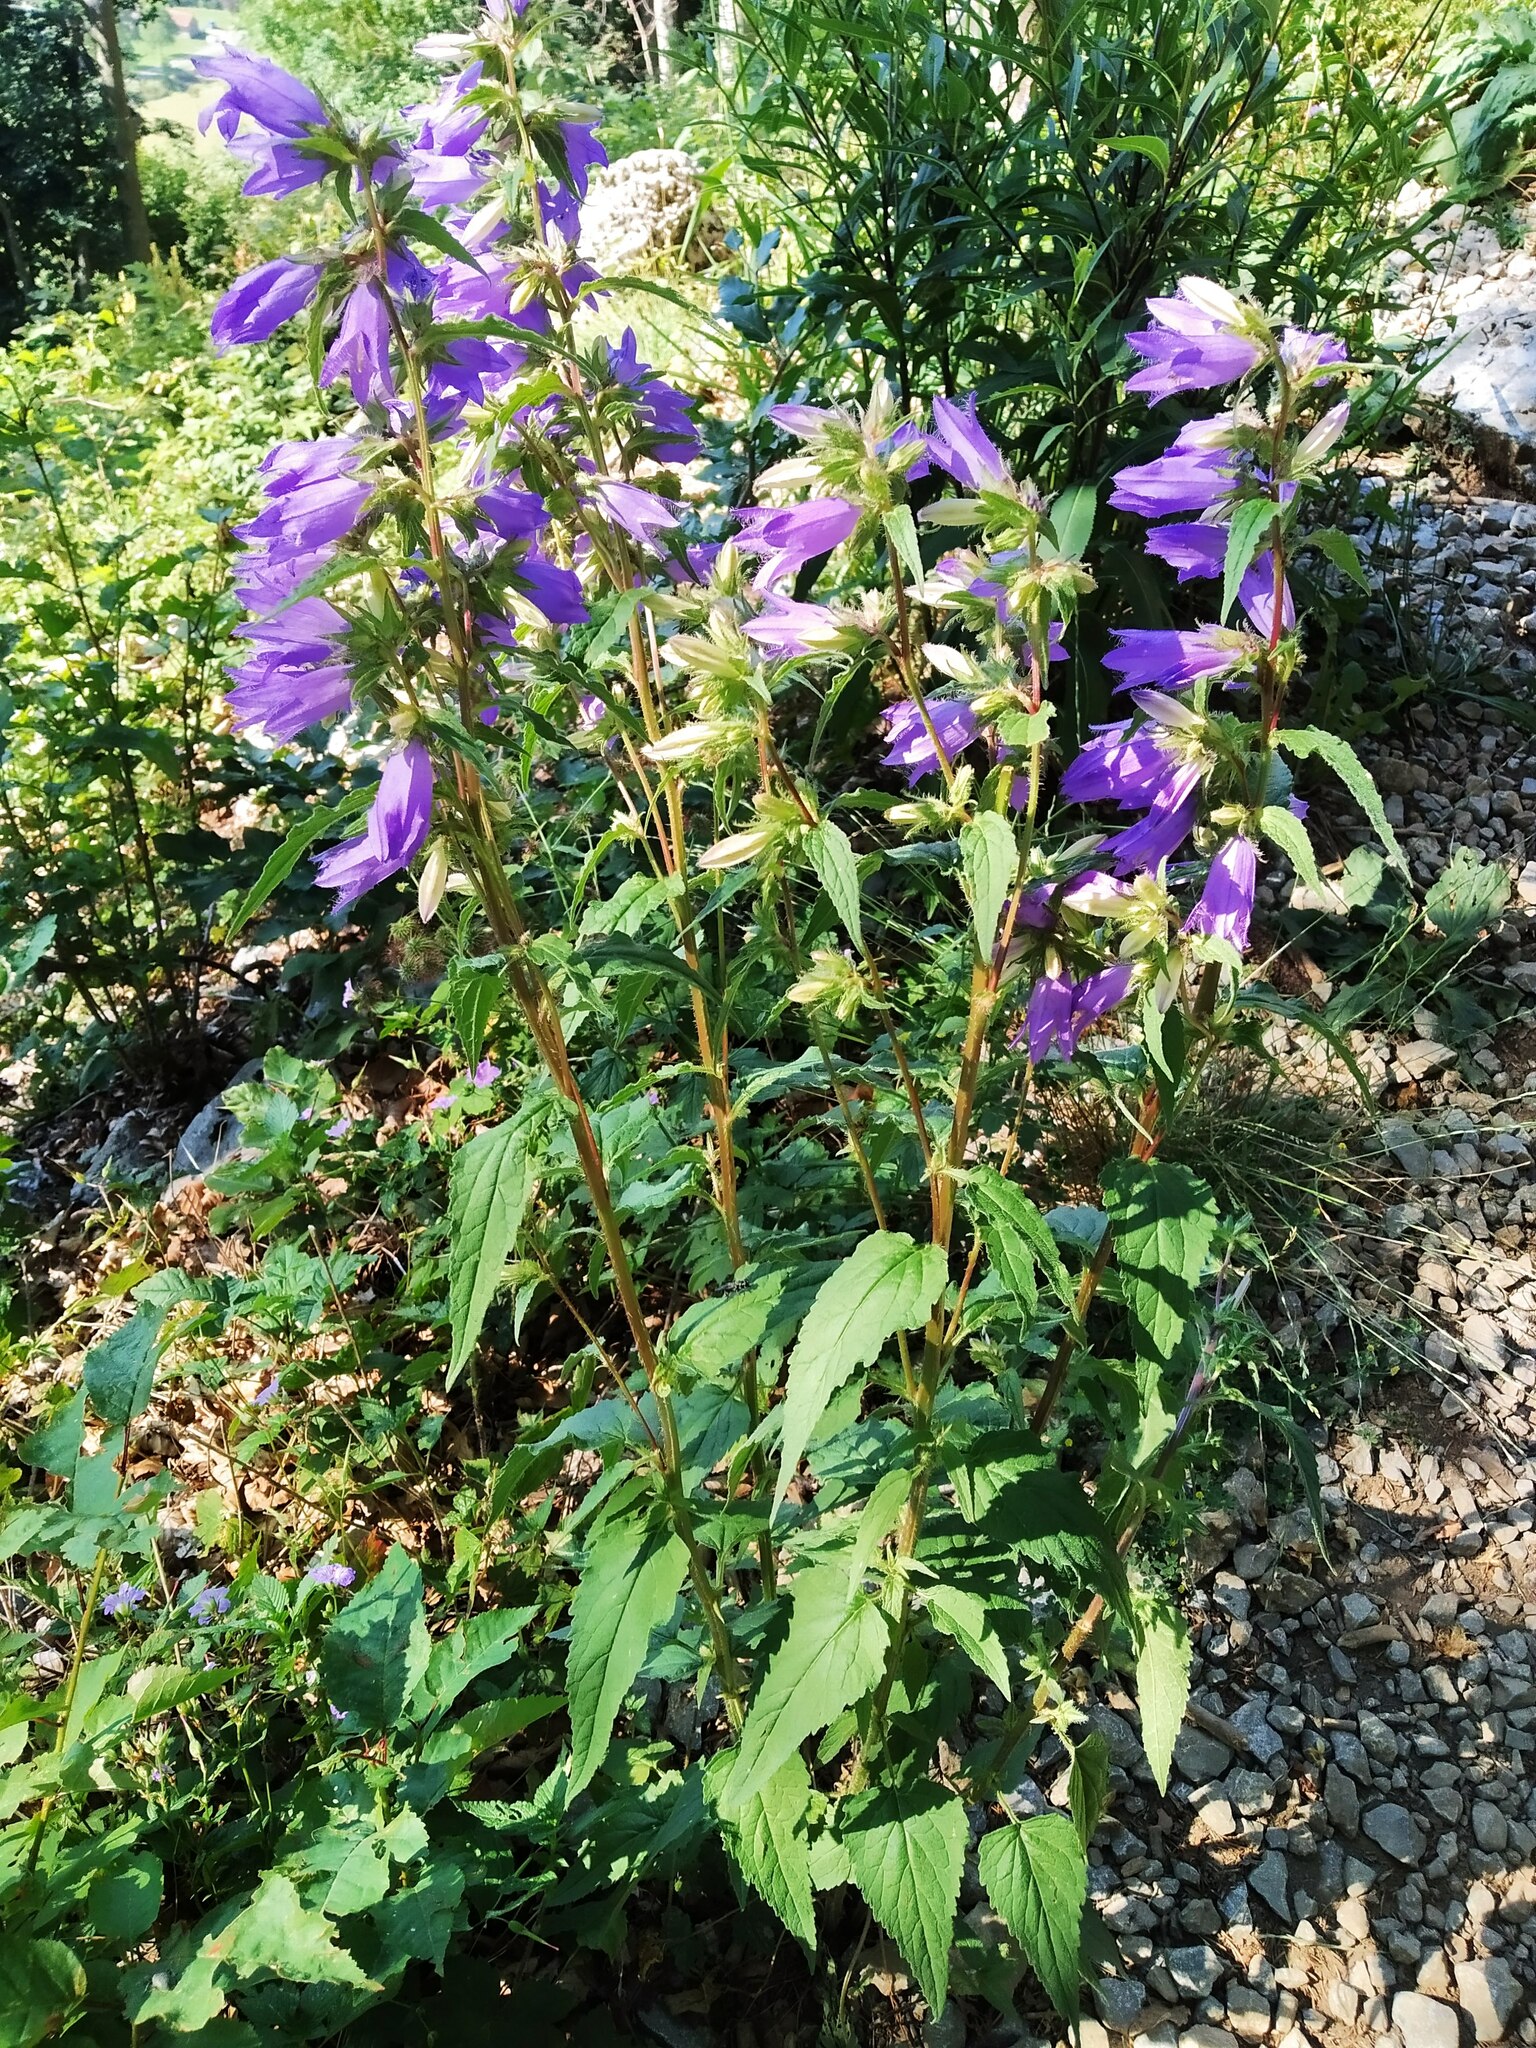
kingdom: Plantae
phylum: Tracheophyta
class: Magnoliopsida
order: Asterales
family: Campanulaceae
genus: Campanula
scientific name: Campanula trachelium
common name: Nettle-leaved bellflower
